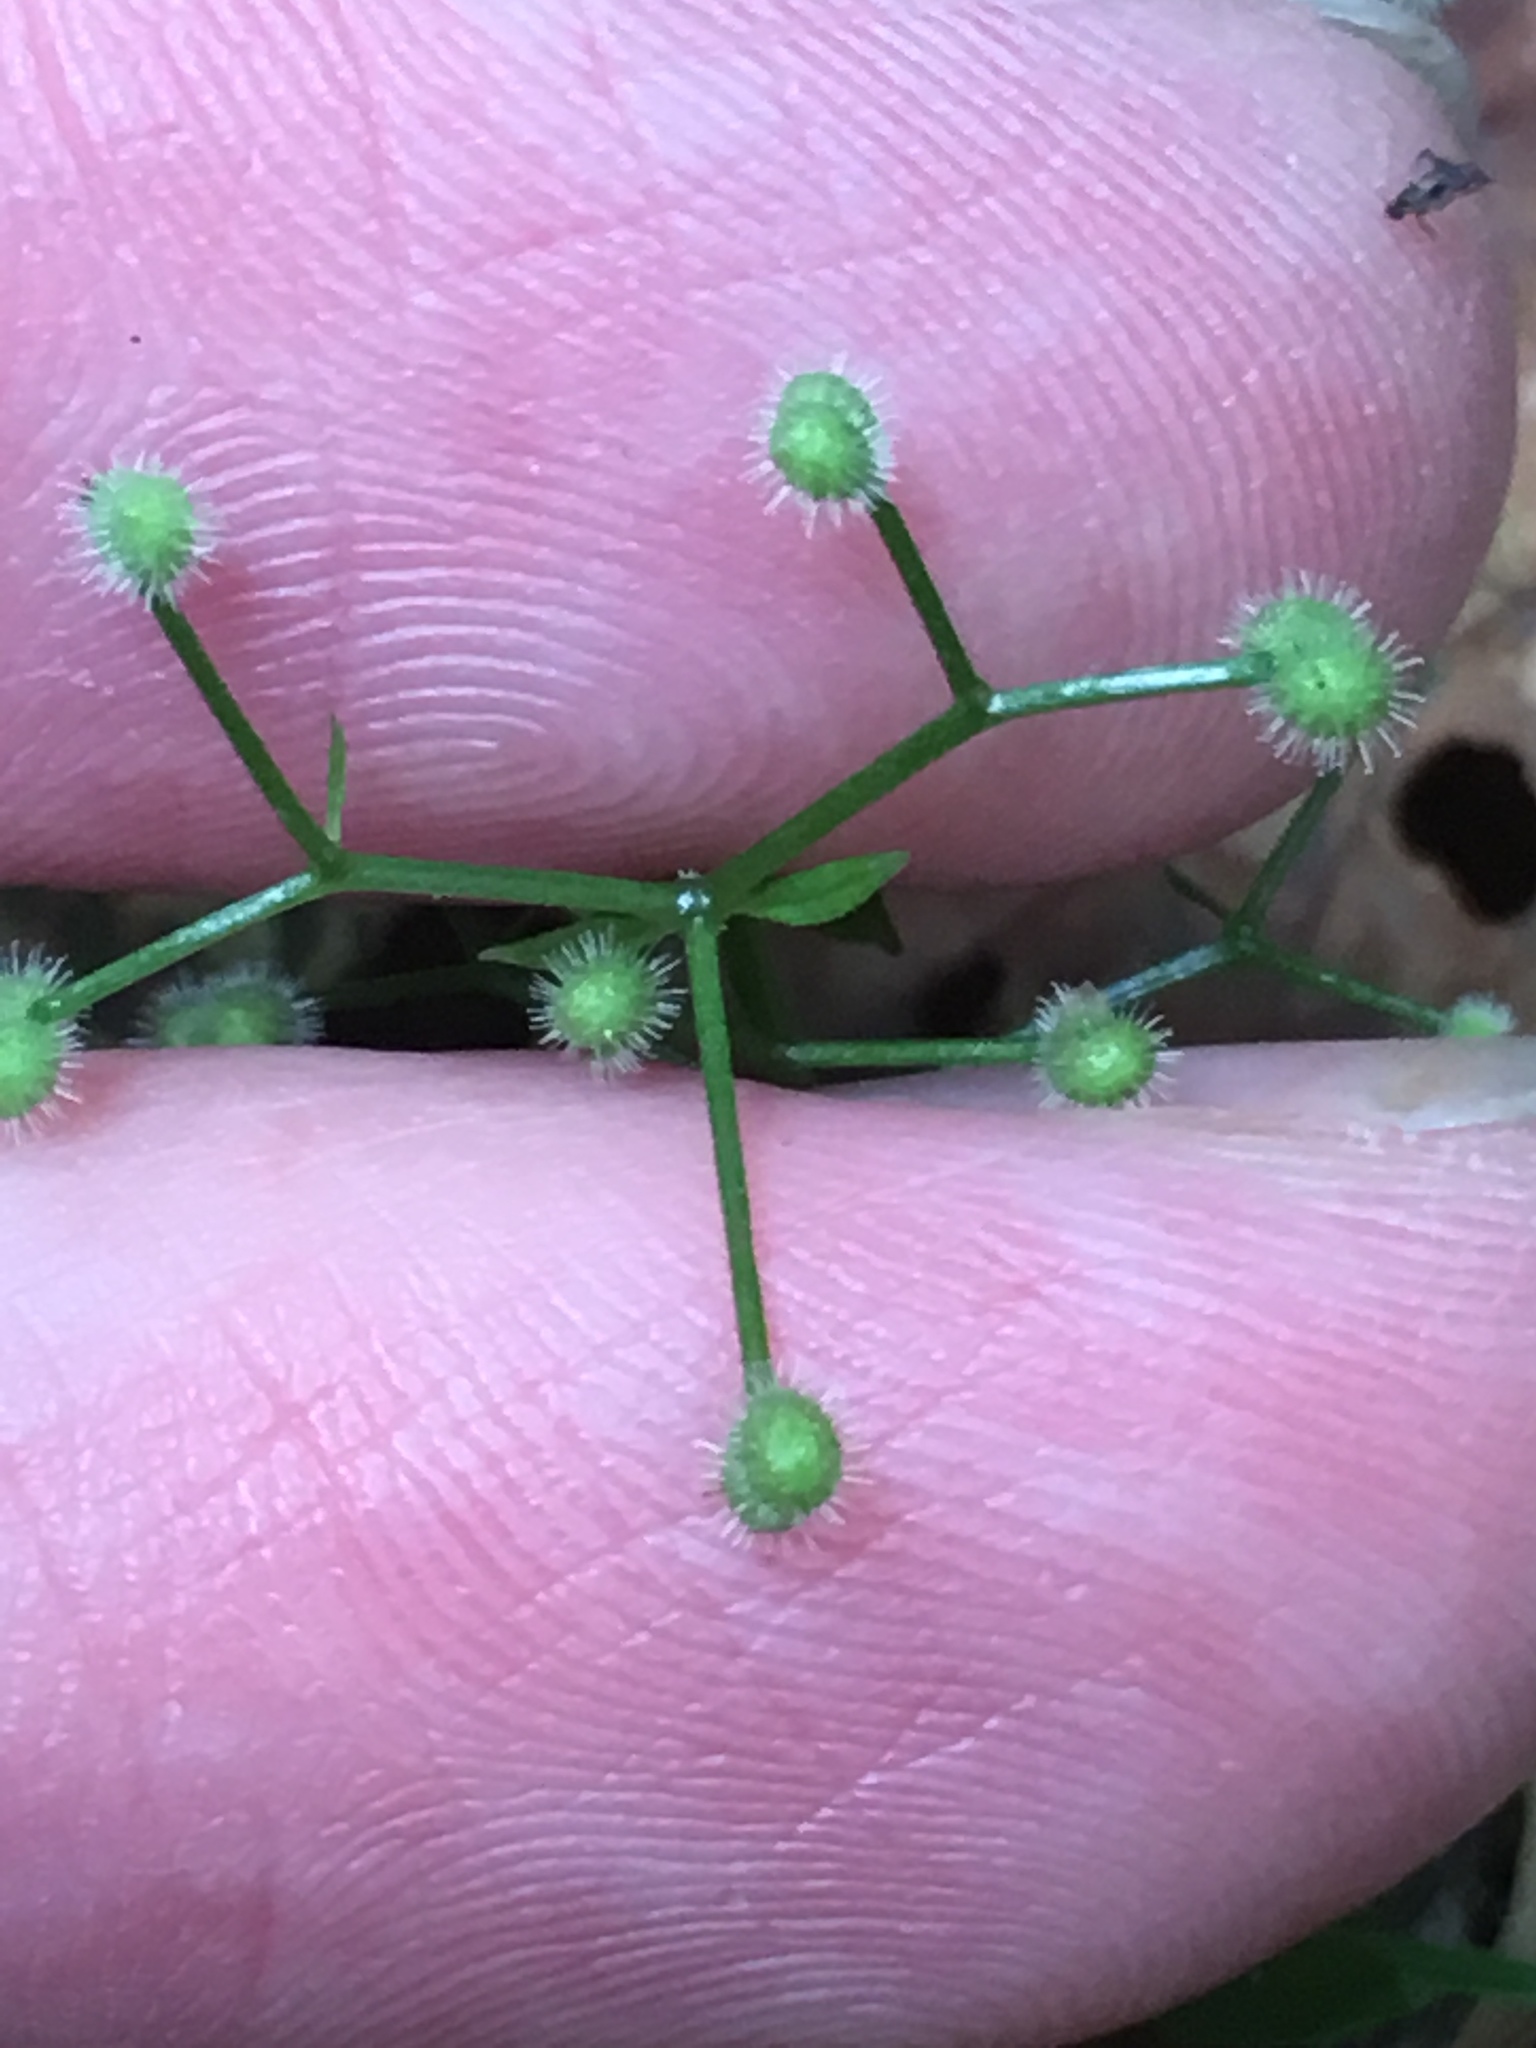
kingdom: Plantae
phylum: Tracheophyta
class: Magnoliopsida
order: Gentianales
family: Rubiaceae
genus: Galium
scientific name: Galium triflorum
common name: Fragrant bedstraw
